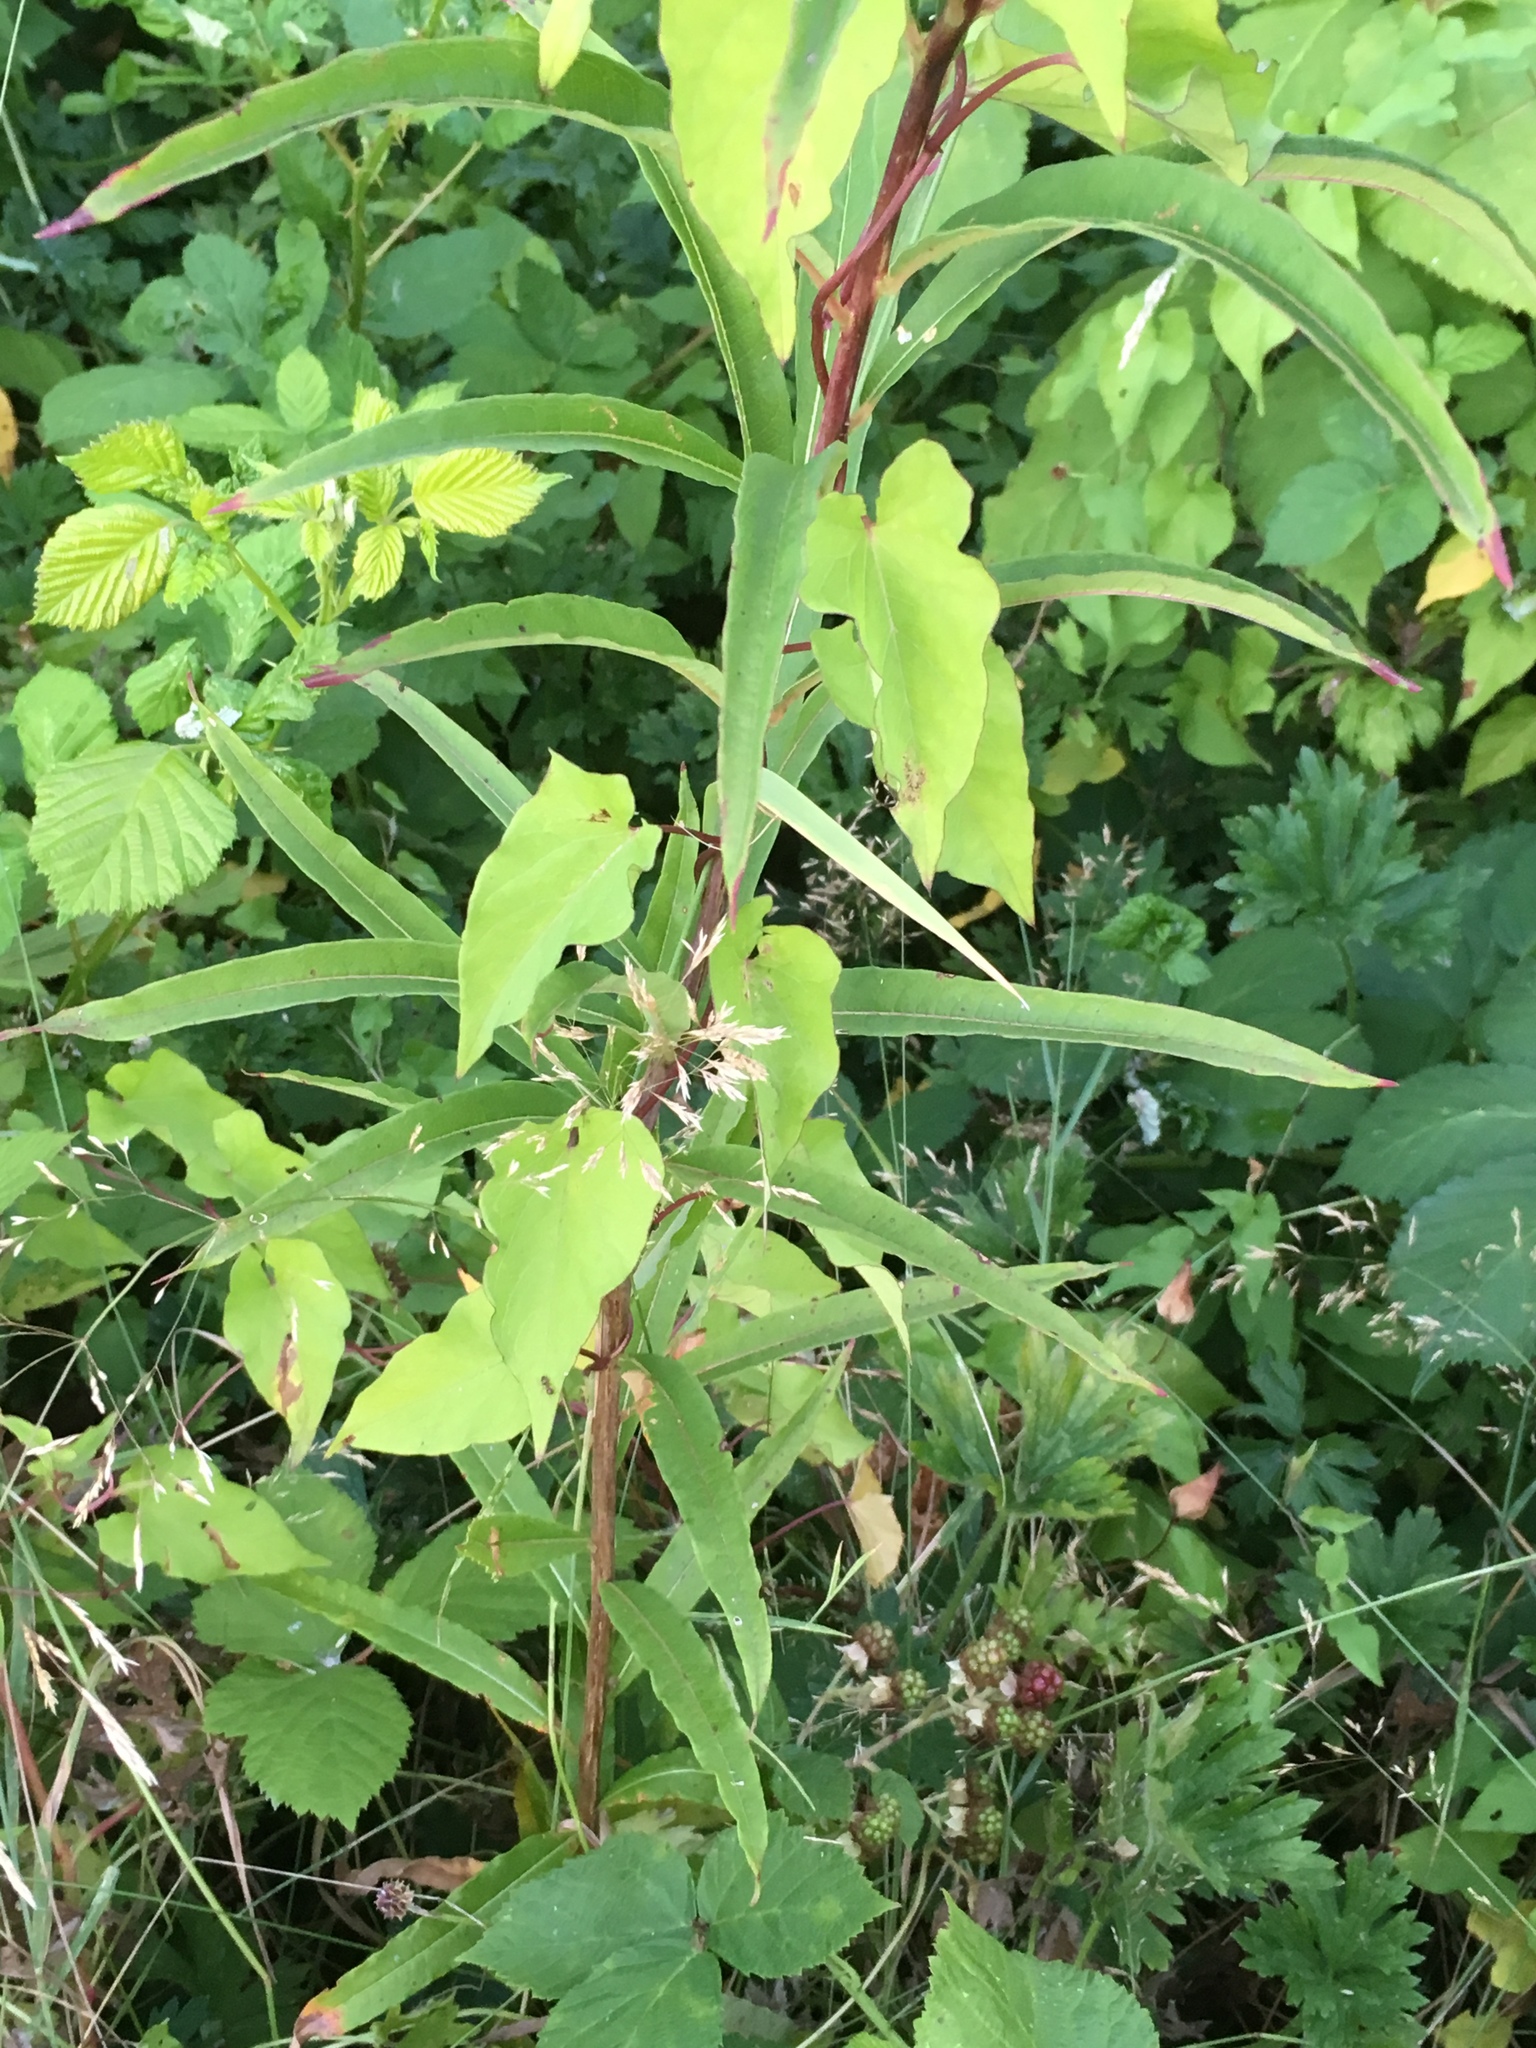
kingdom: Plantae
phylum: Tracheophyta
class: Magnoliopsida
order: Myrtales
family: Onagraceae
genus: Chamaenerion
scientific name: Chamaenerion angustifolium
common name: Fireweed
